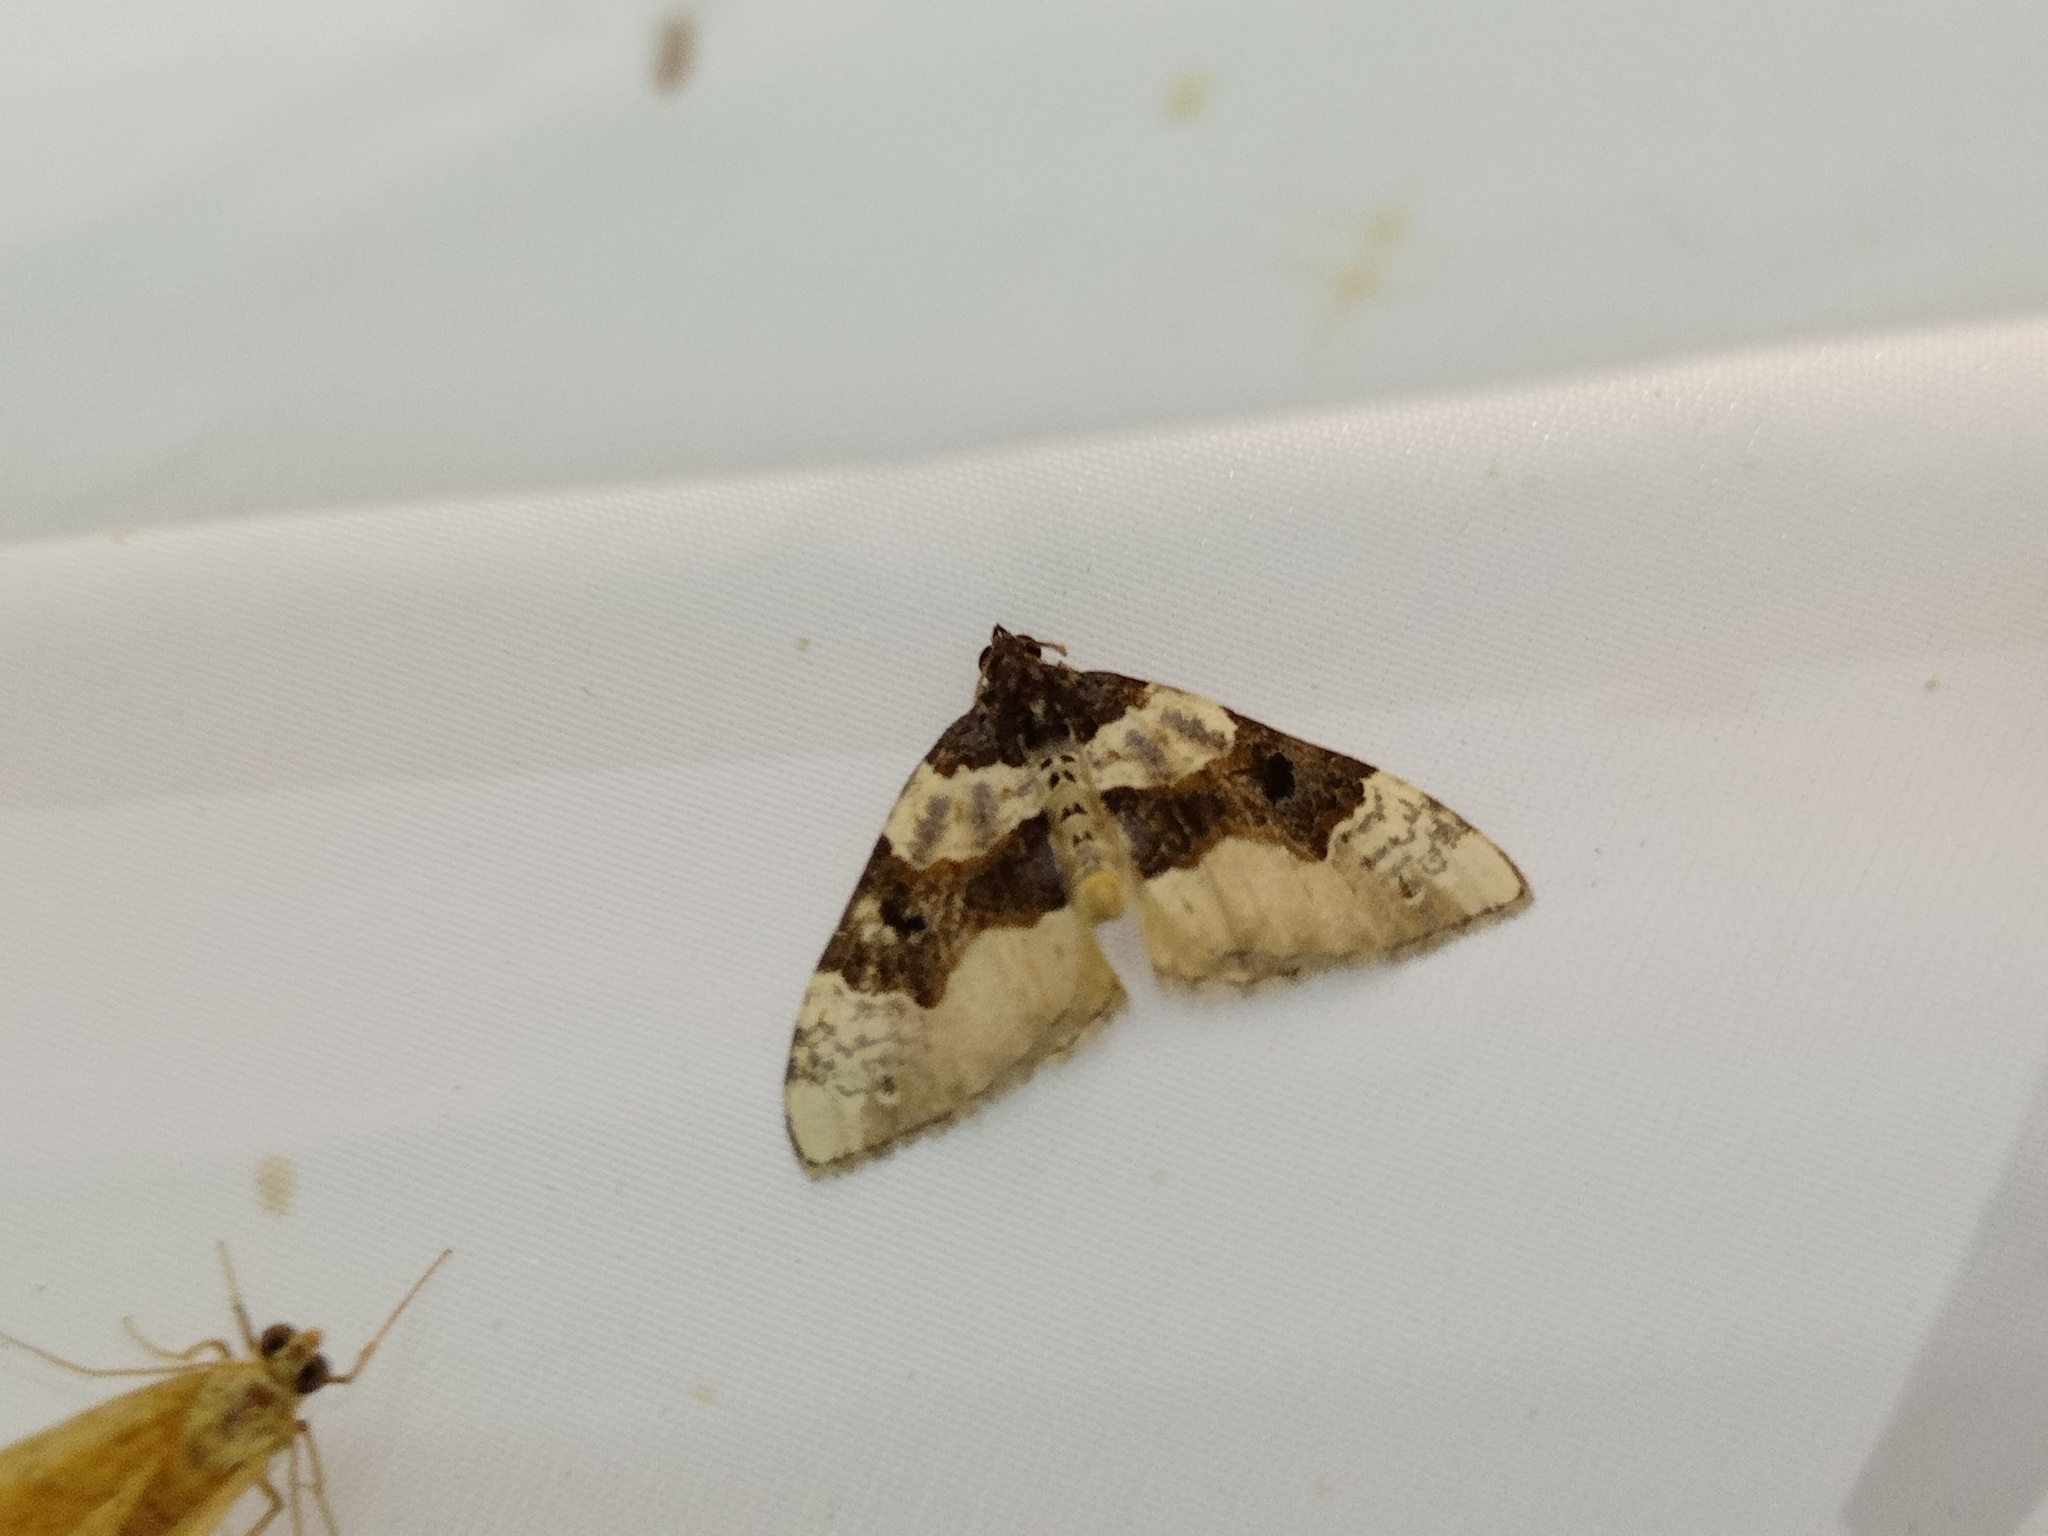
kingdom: Animalia
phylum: Arthropoda
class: Insecta
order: Lepidoptera
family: Geometridae
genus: Cosmorhoe
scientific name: Cosmorhoe ocellata
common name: Purple bar
